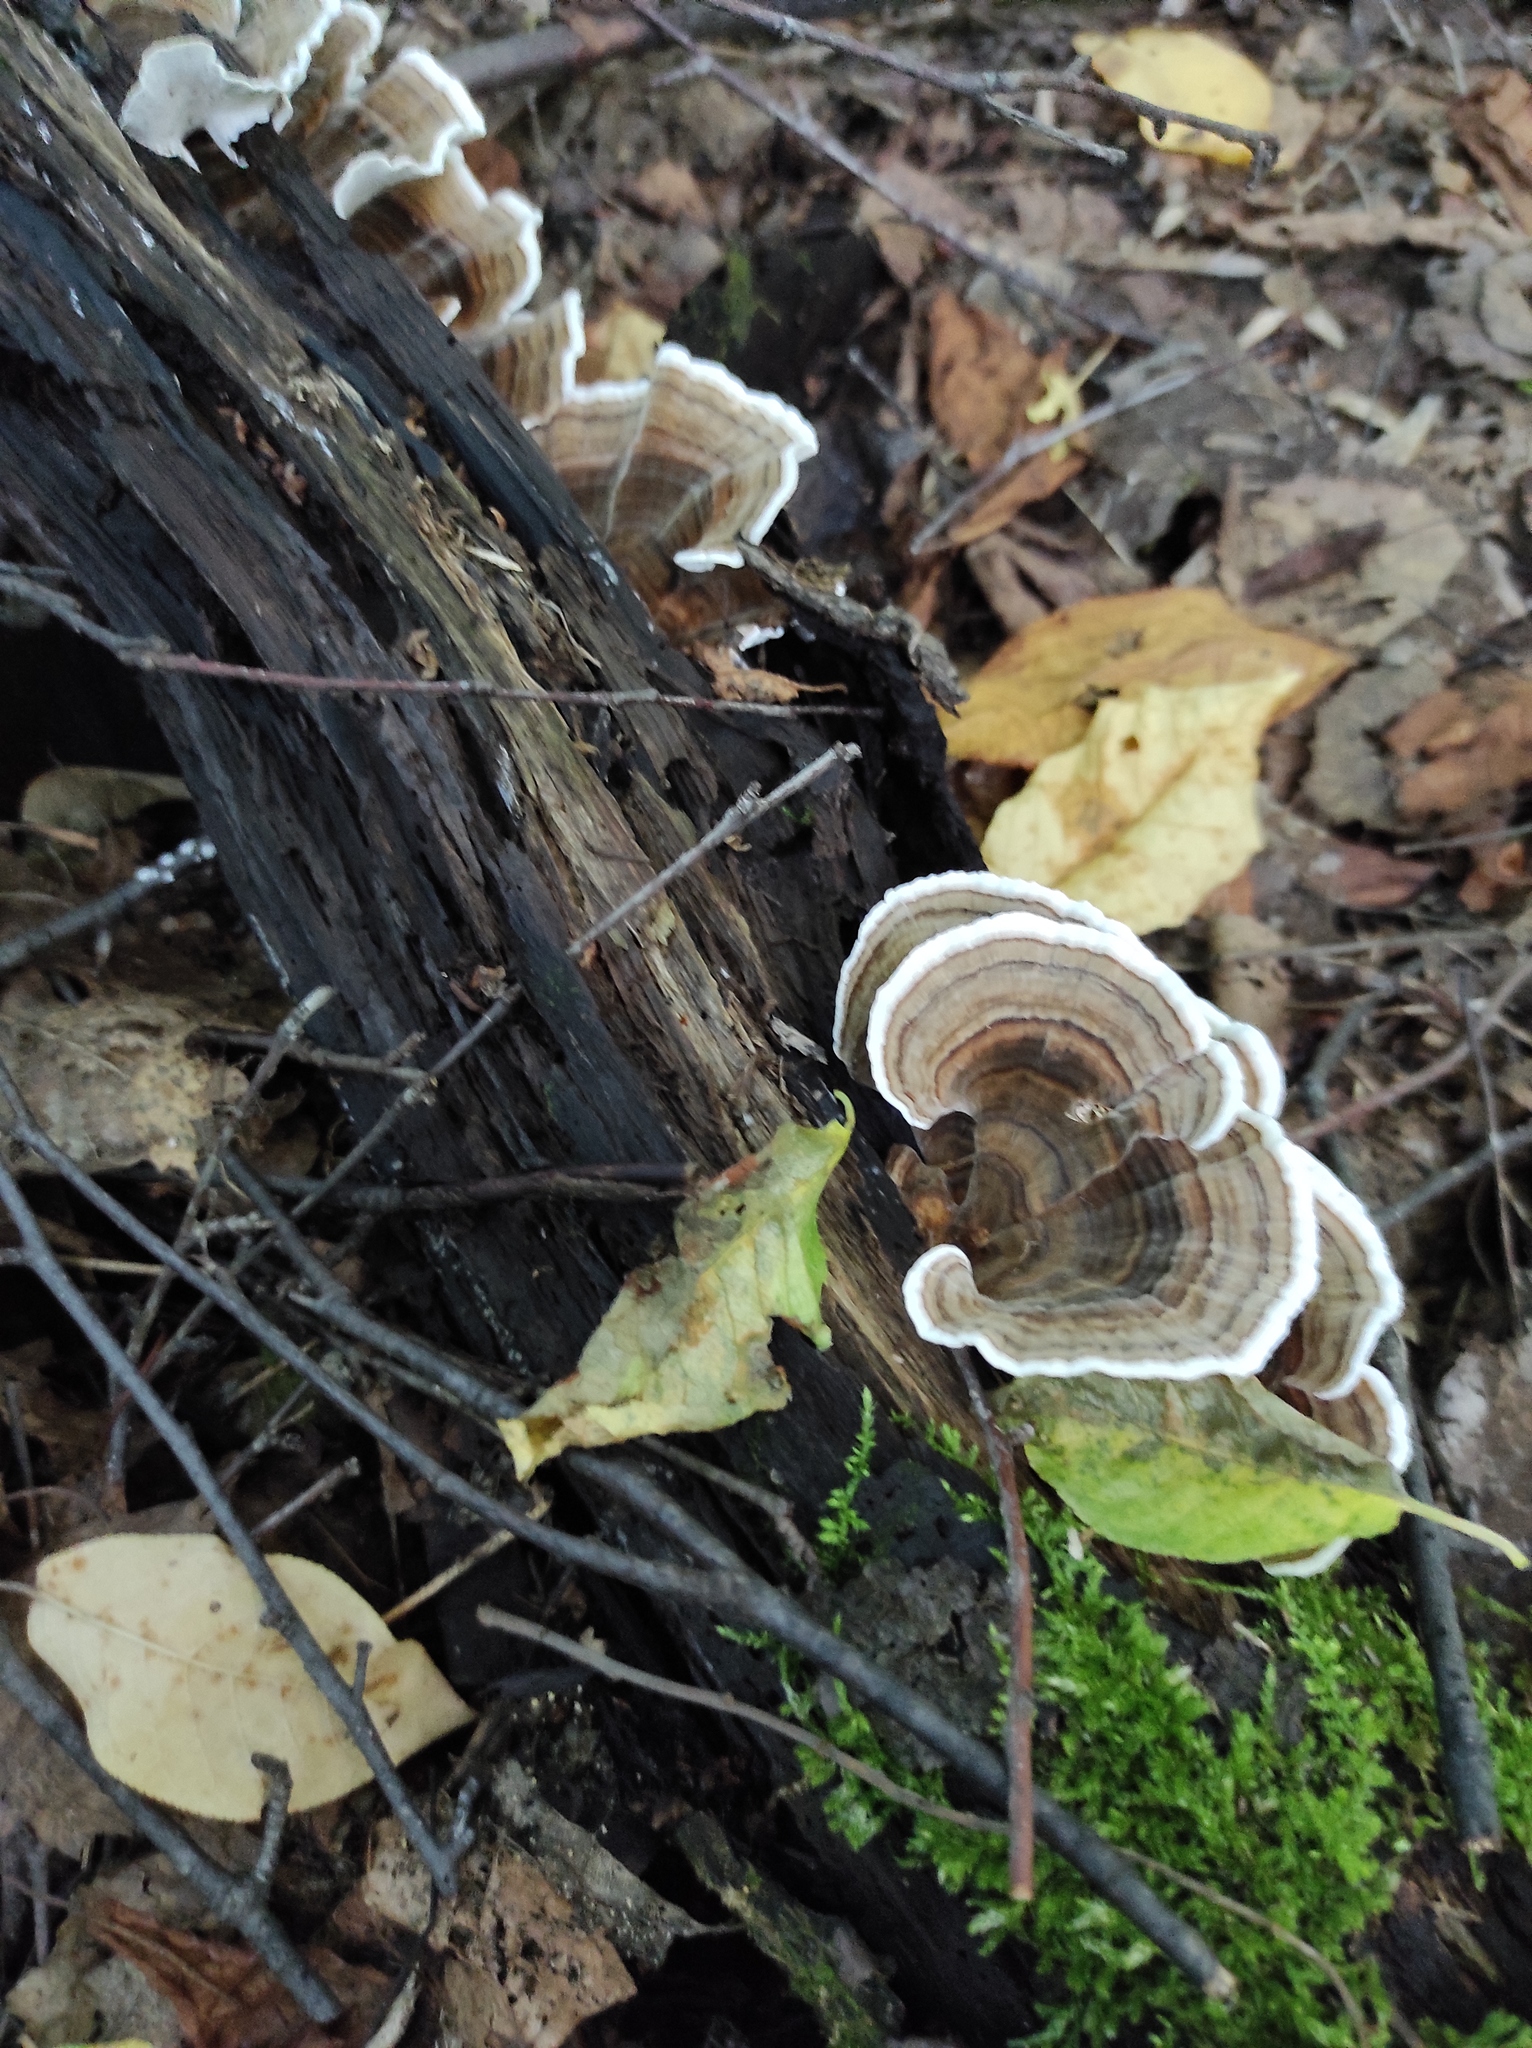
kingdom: Fungi
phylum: Basidiomycota
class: Agaricomycetes
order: Polyporales
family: Polyporaceae
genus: Trametes
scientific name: Trametes versicolor
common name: Turkeytail
